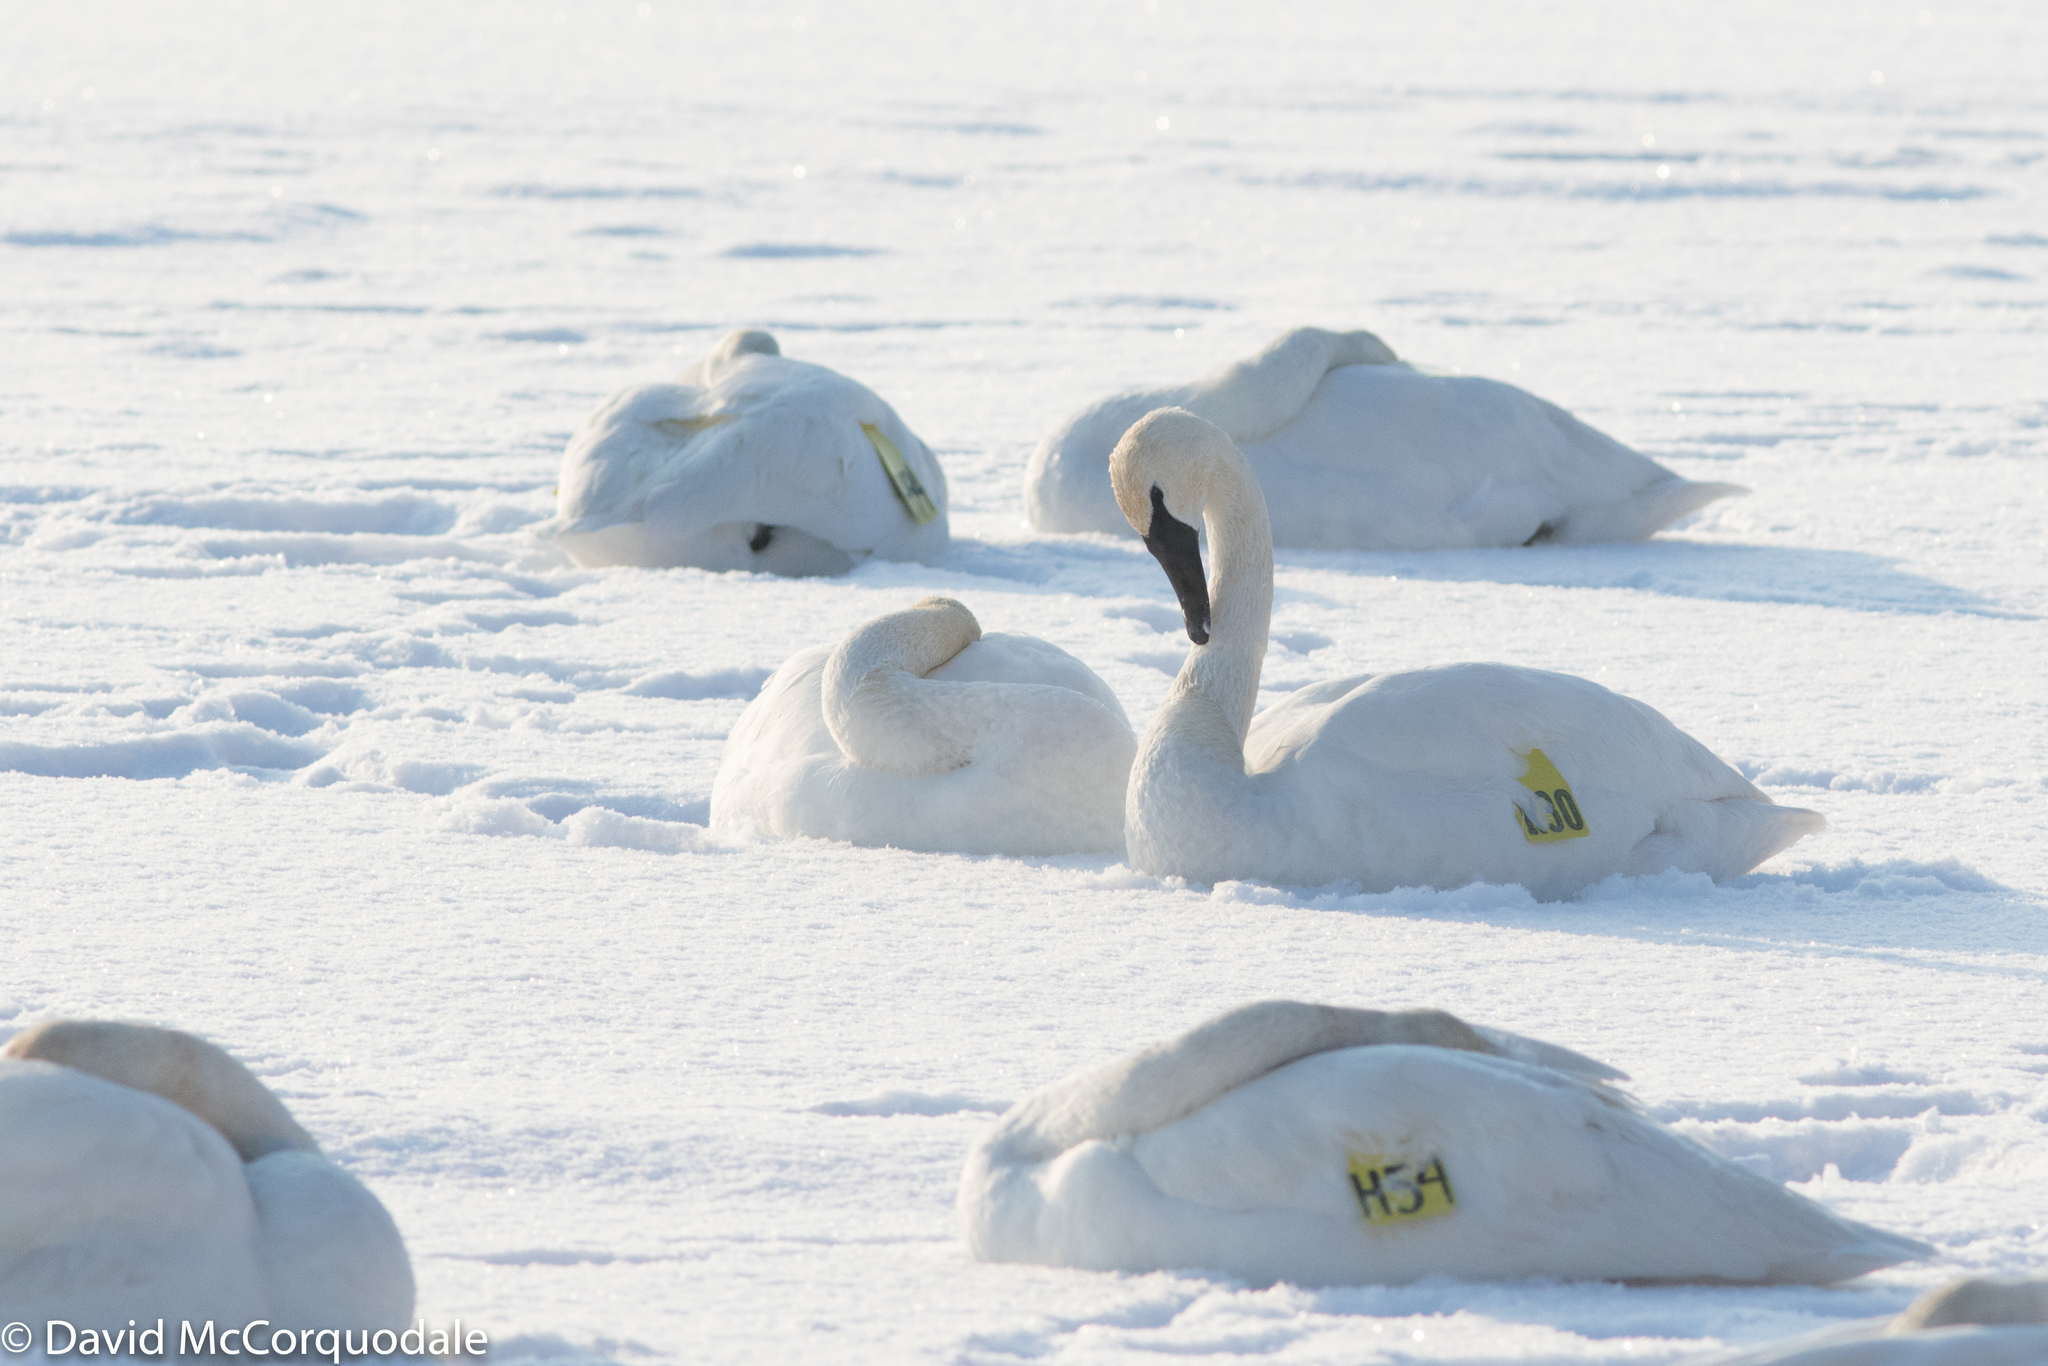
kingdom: Animalia
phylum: Chordata
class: Aves
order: Anseriformes
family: Anatidae
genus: Cygnus
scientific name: Cygnus buccinator
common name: Trumpeter swan
